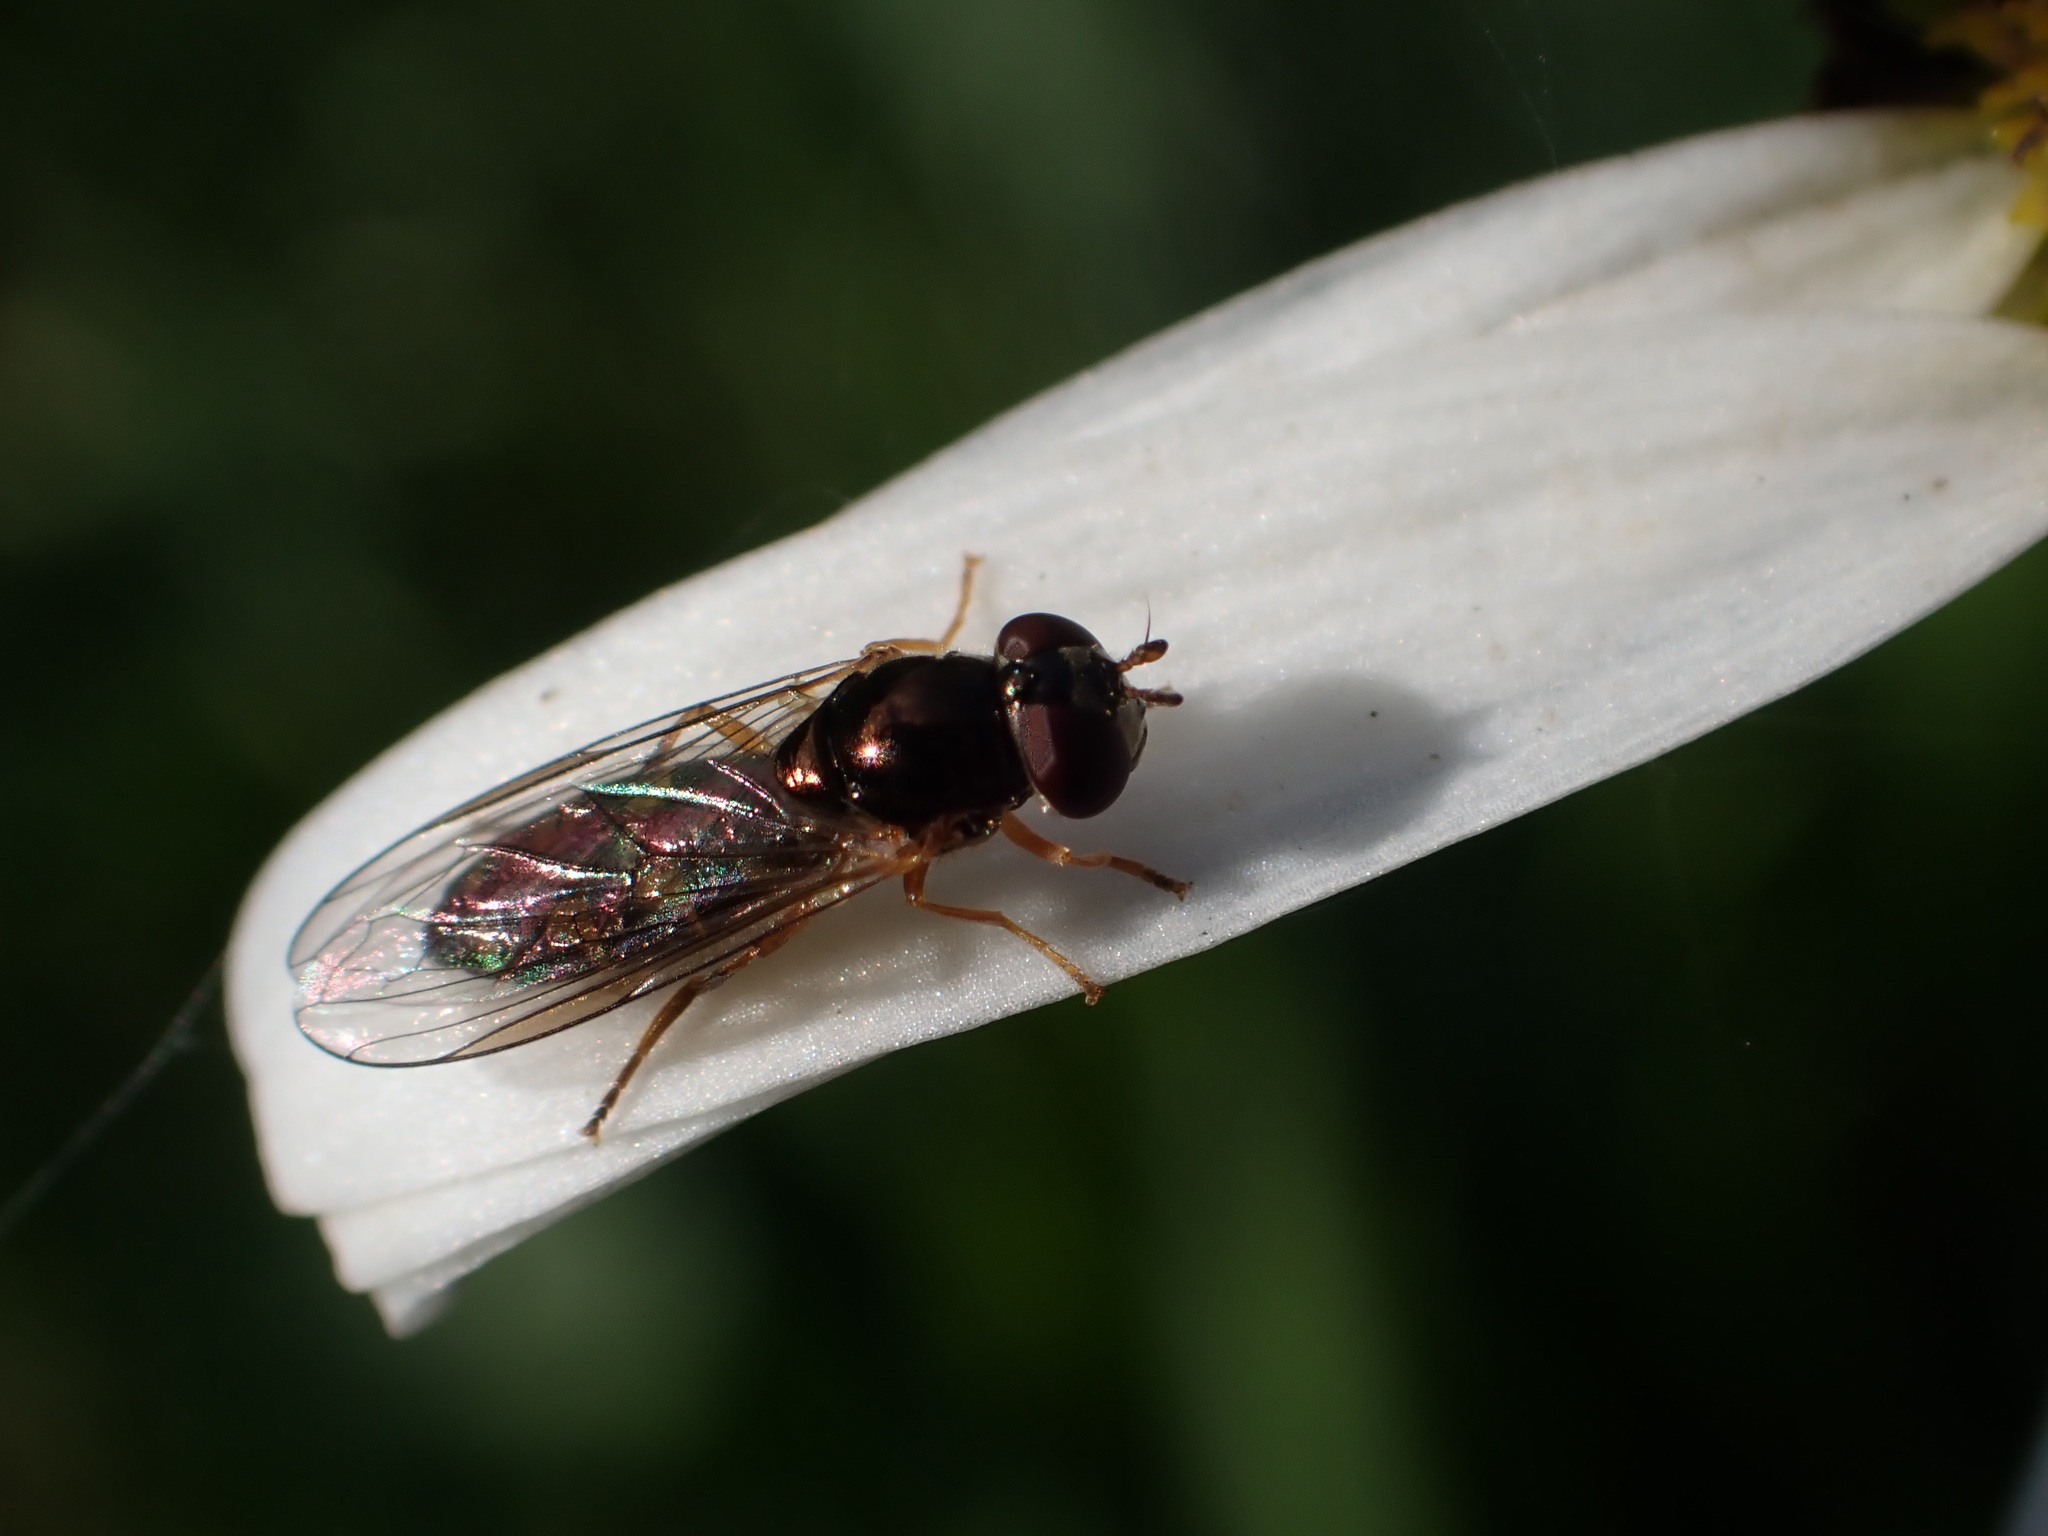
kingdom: Animalia
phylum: Arthropoda
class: Insecta
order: Diptera
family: Syrphidae
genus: Melanostoma
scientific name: Melanostoma fasciatum
